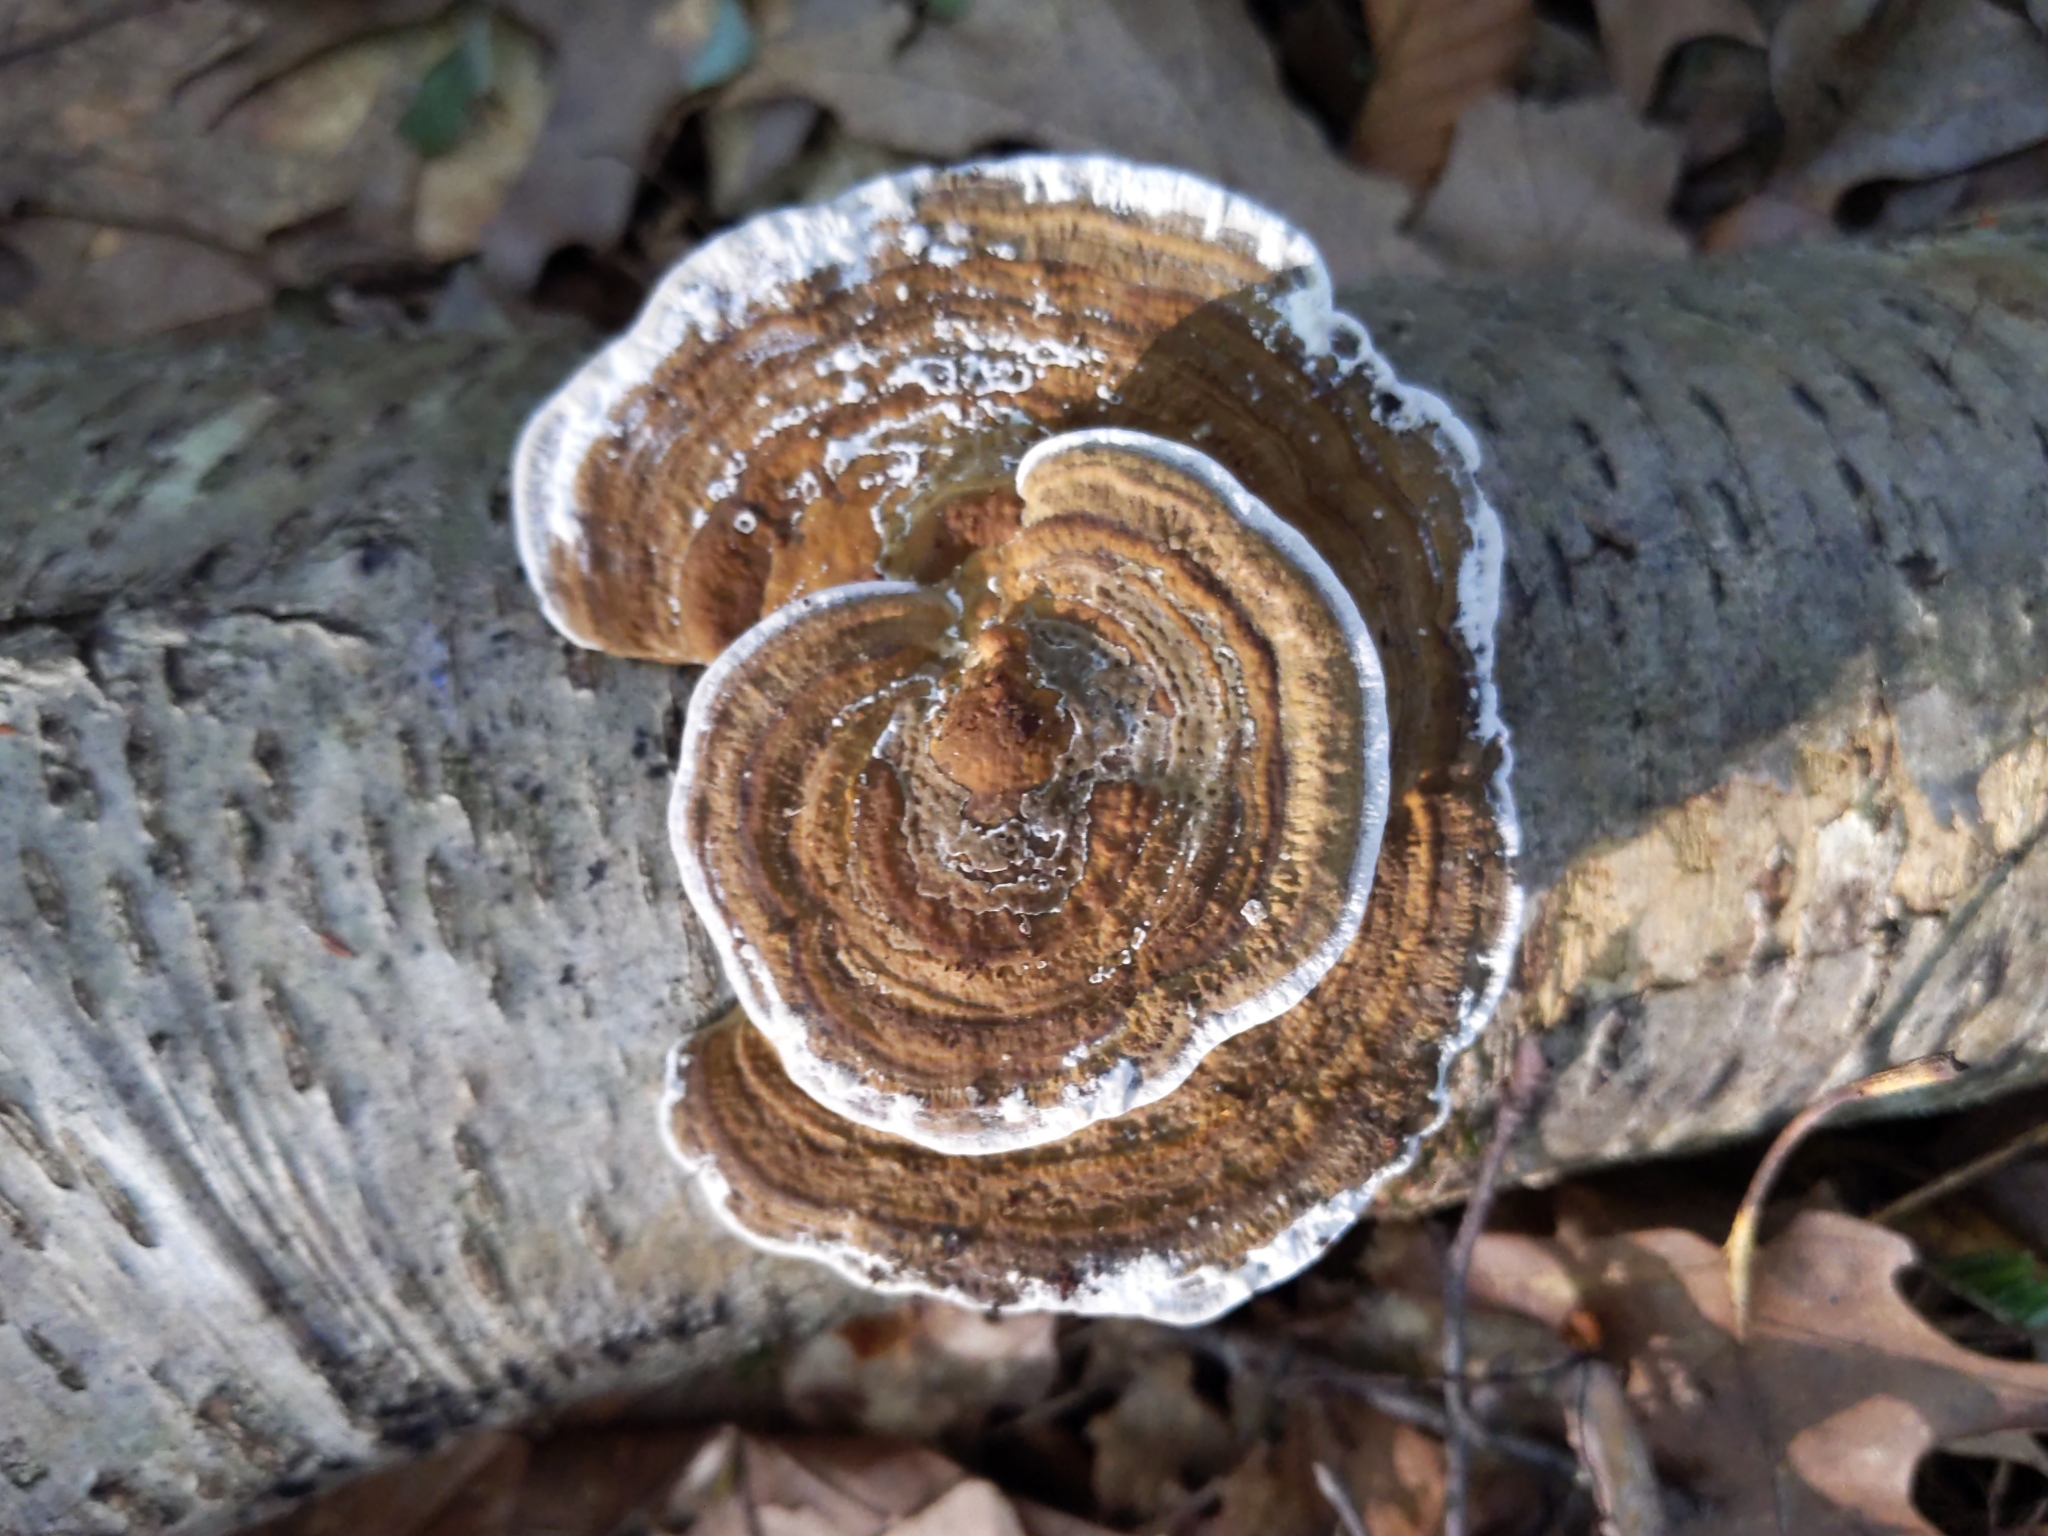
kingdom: Fungi
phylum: Basidiomycota
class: Agaricomycetes
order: Polyporales
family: Polyporaceae
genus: Daedaleopsis
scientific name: Daedaleopsis confragosa
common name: Blushing bracket
